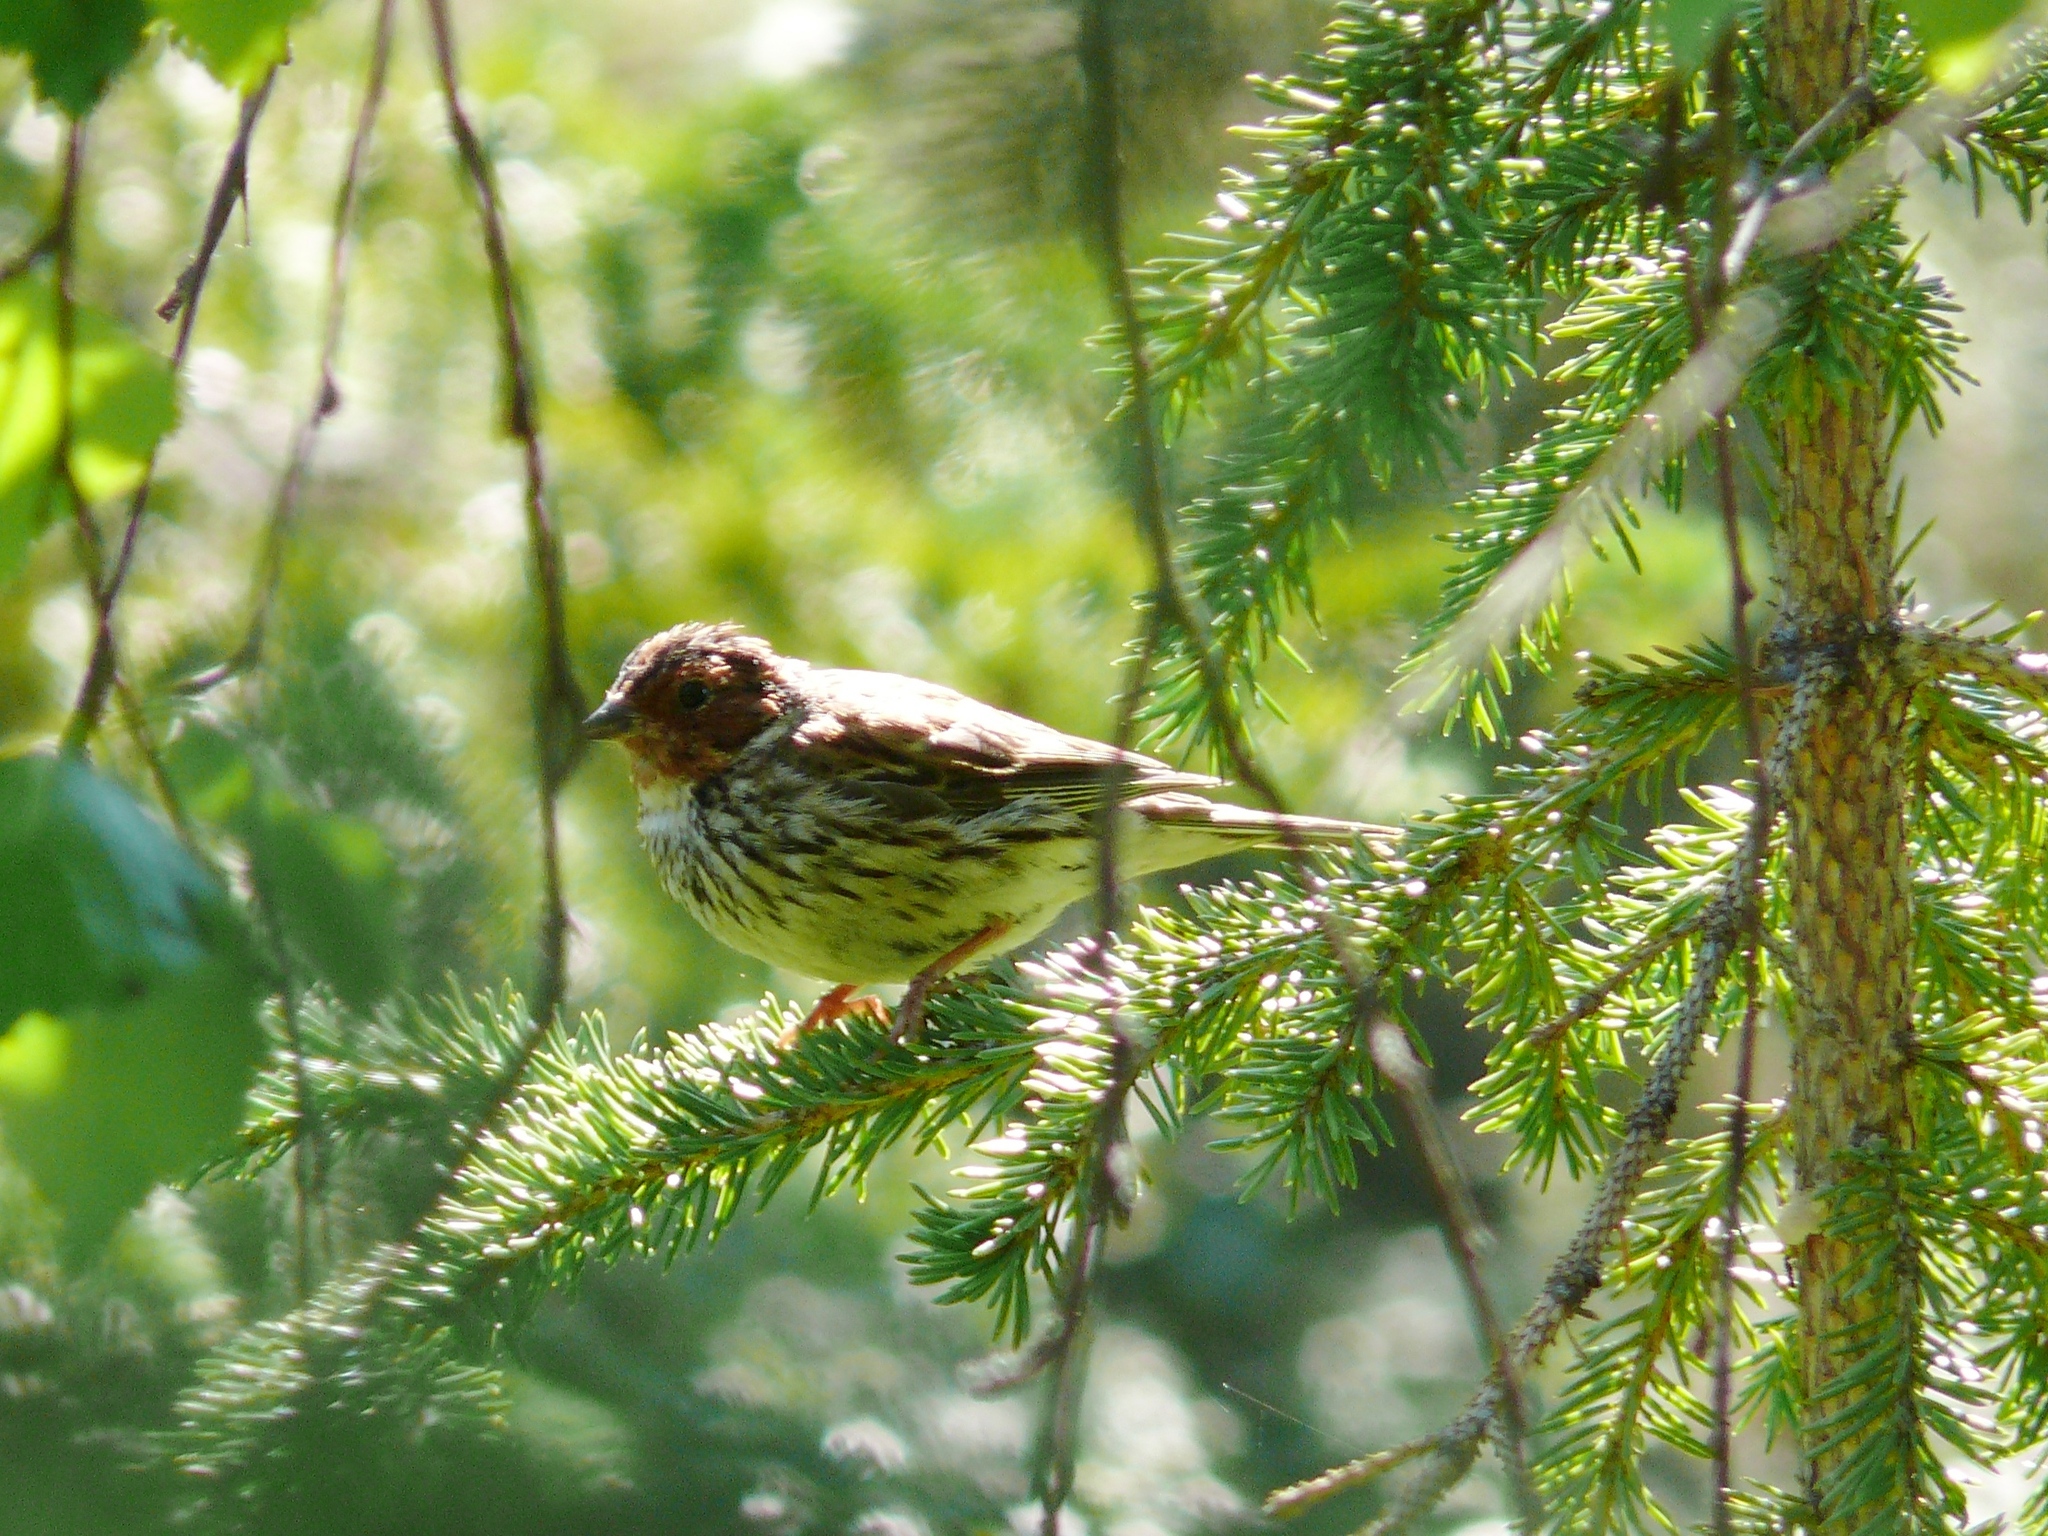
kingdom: Animalia
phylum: Chordata
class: Aves
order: Passeriformes
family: Emberizidae
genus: Emberiza
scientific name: Emberiza pusilla
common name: Little bunting
